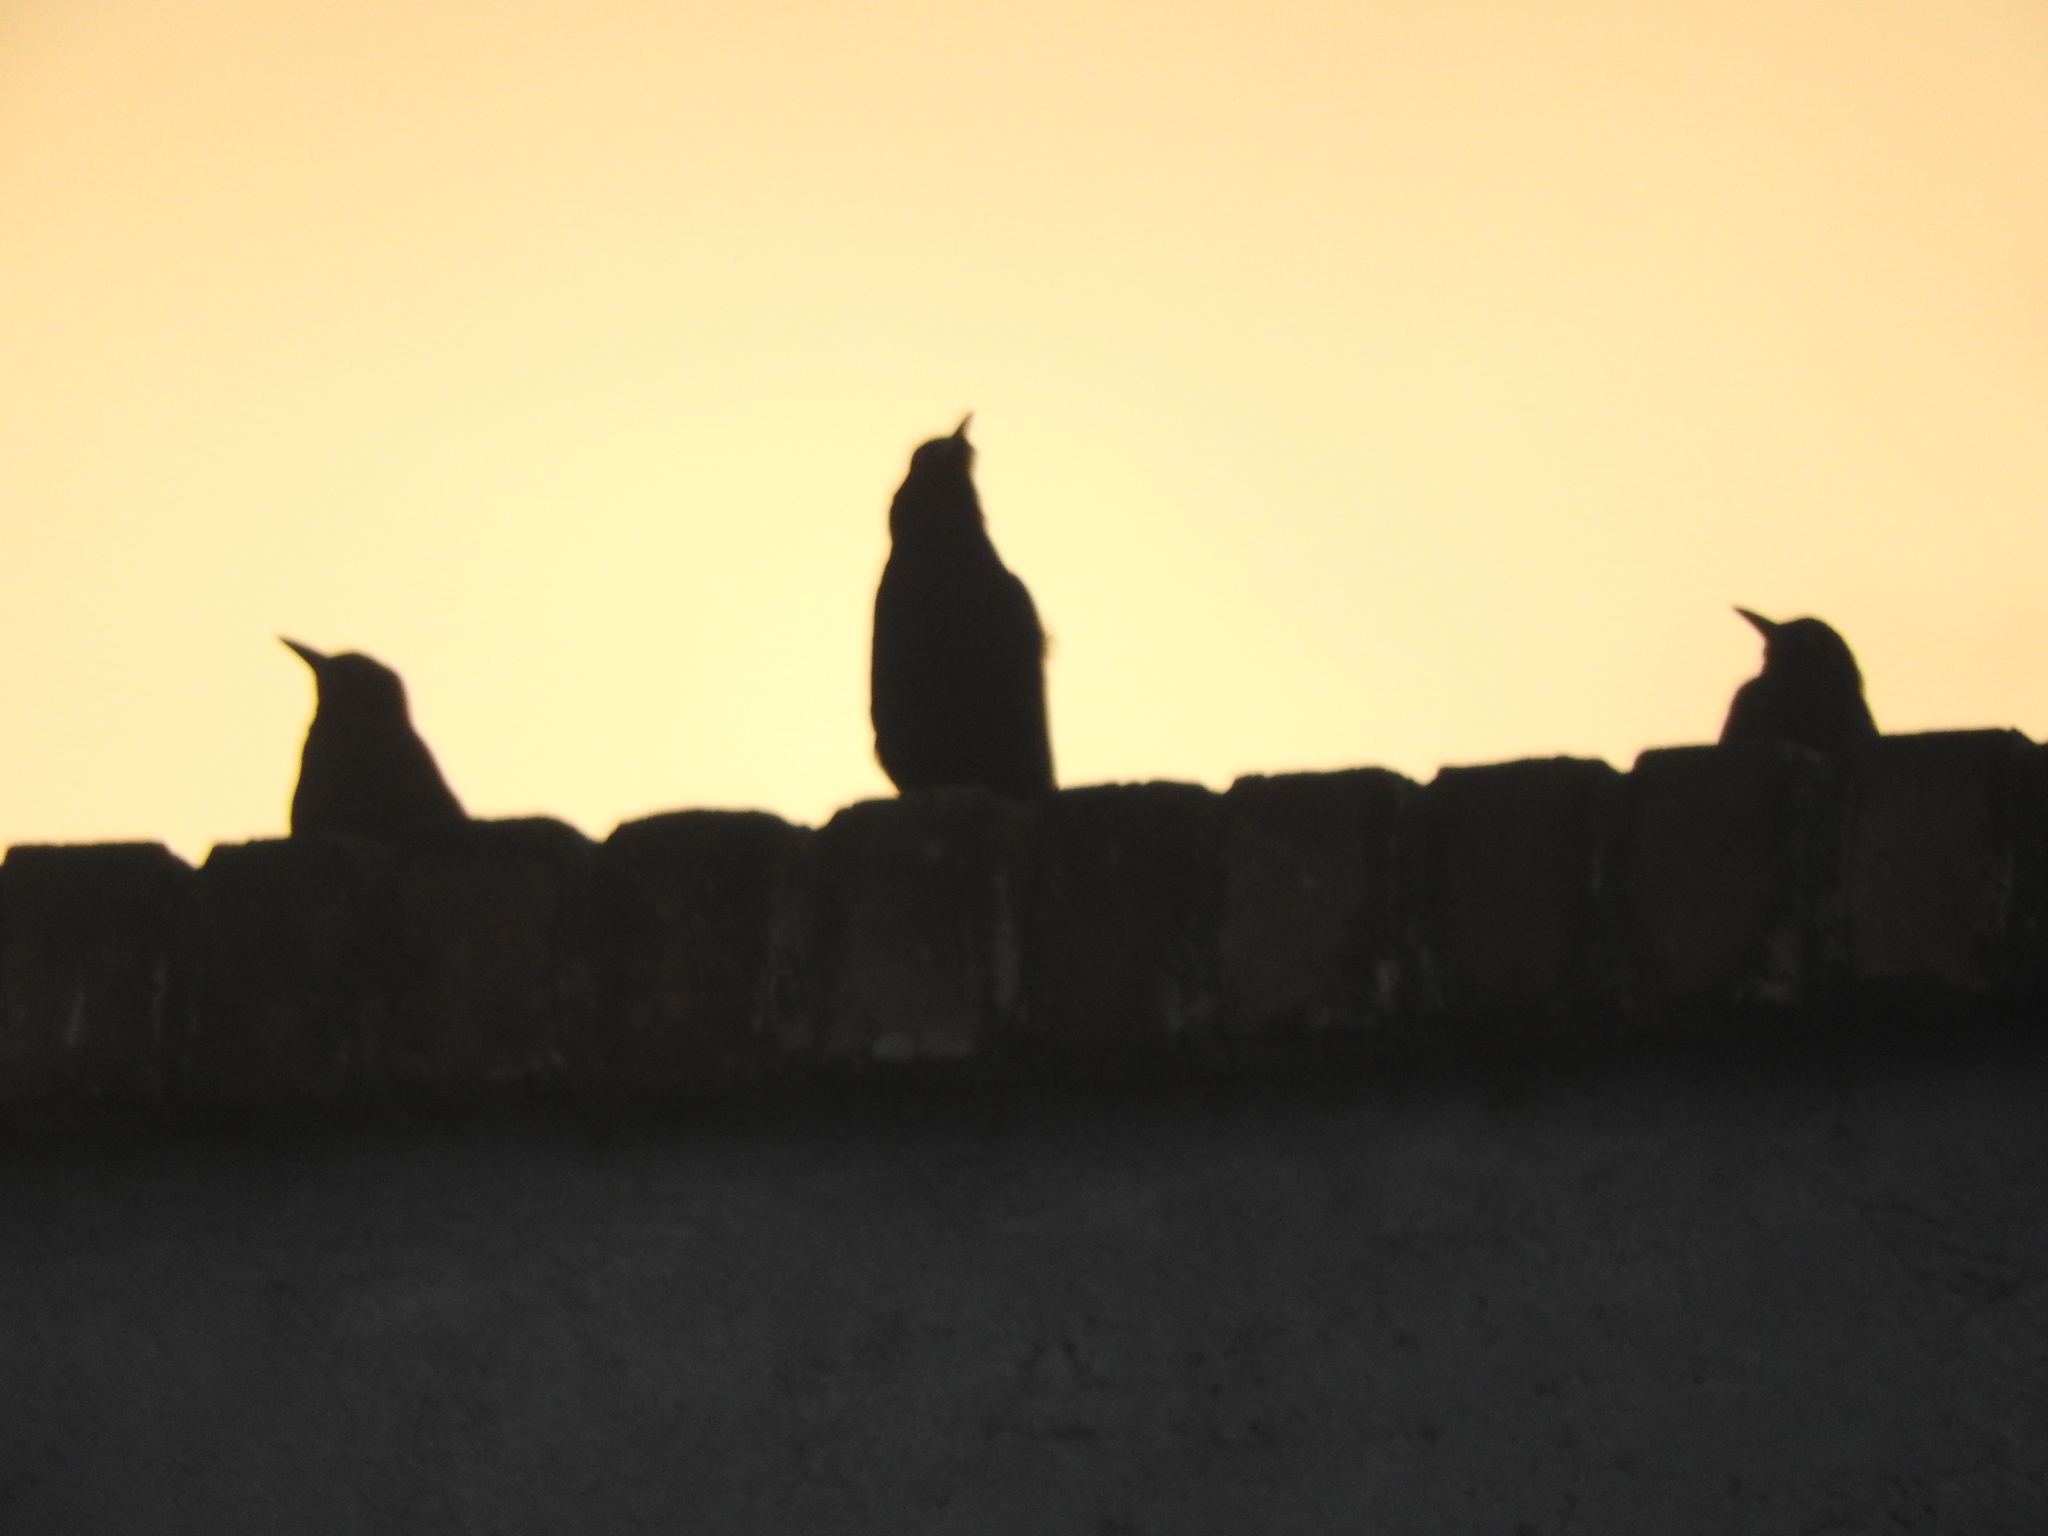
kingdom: Animalia
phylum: Chordata
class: Aves
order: Passeriformes
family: Icteridae
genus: Quiscalus
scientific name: Quiscalus mexicanus
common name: Great-tailed grackle
